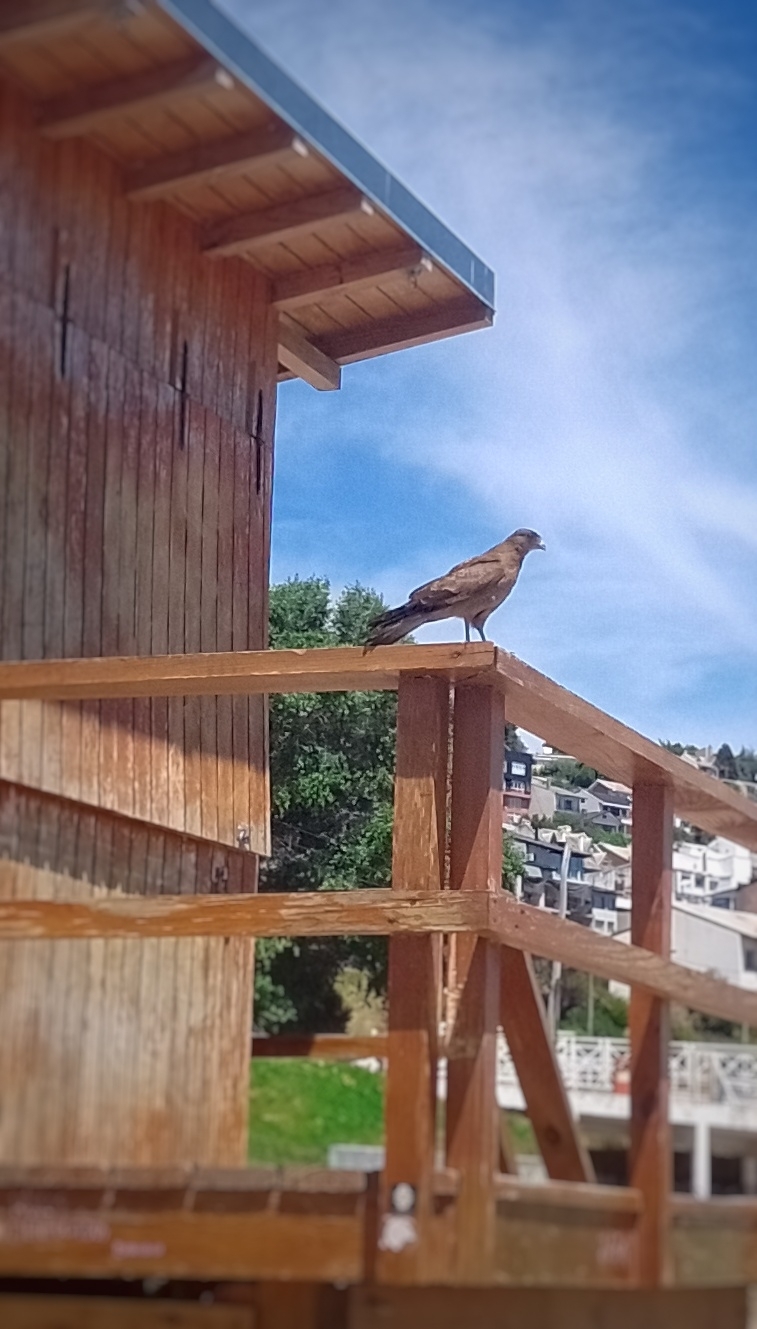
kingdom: Animalia
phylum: Chordata
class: Aves
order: Falconiformes
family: Falconidae
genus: Daptrius
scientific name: Daptrius
